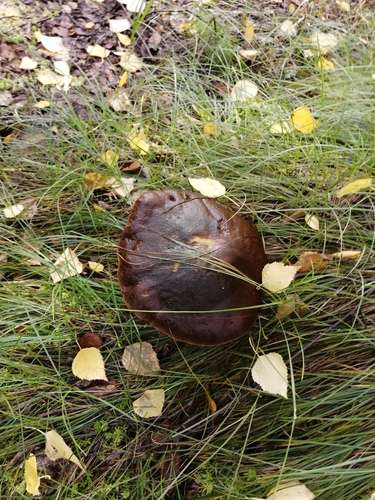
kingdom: Fungi
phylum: Basidiomycota
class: Agaricomycetes
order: Boletales
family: Boletaceae
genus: Leccinum
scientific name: Leccinum scabrum
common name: Blushing bolete
